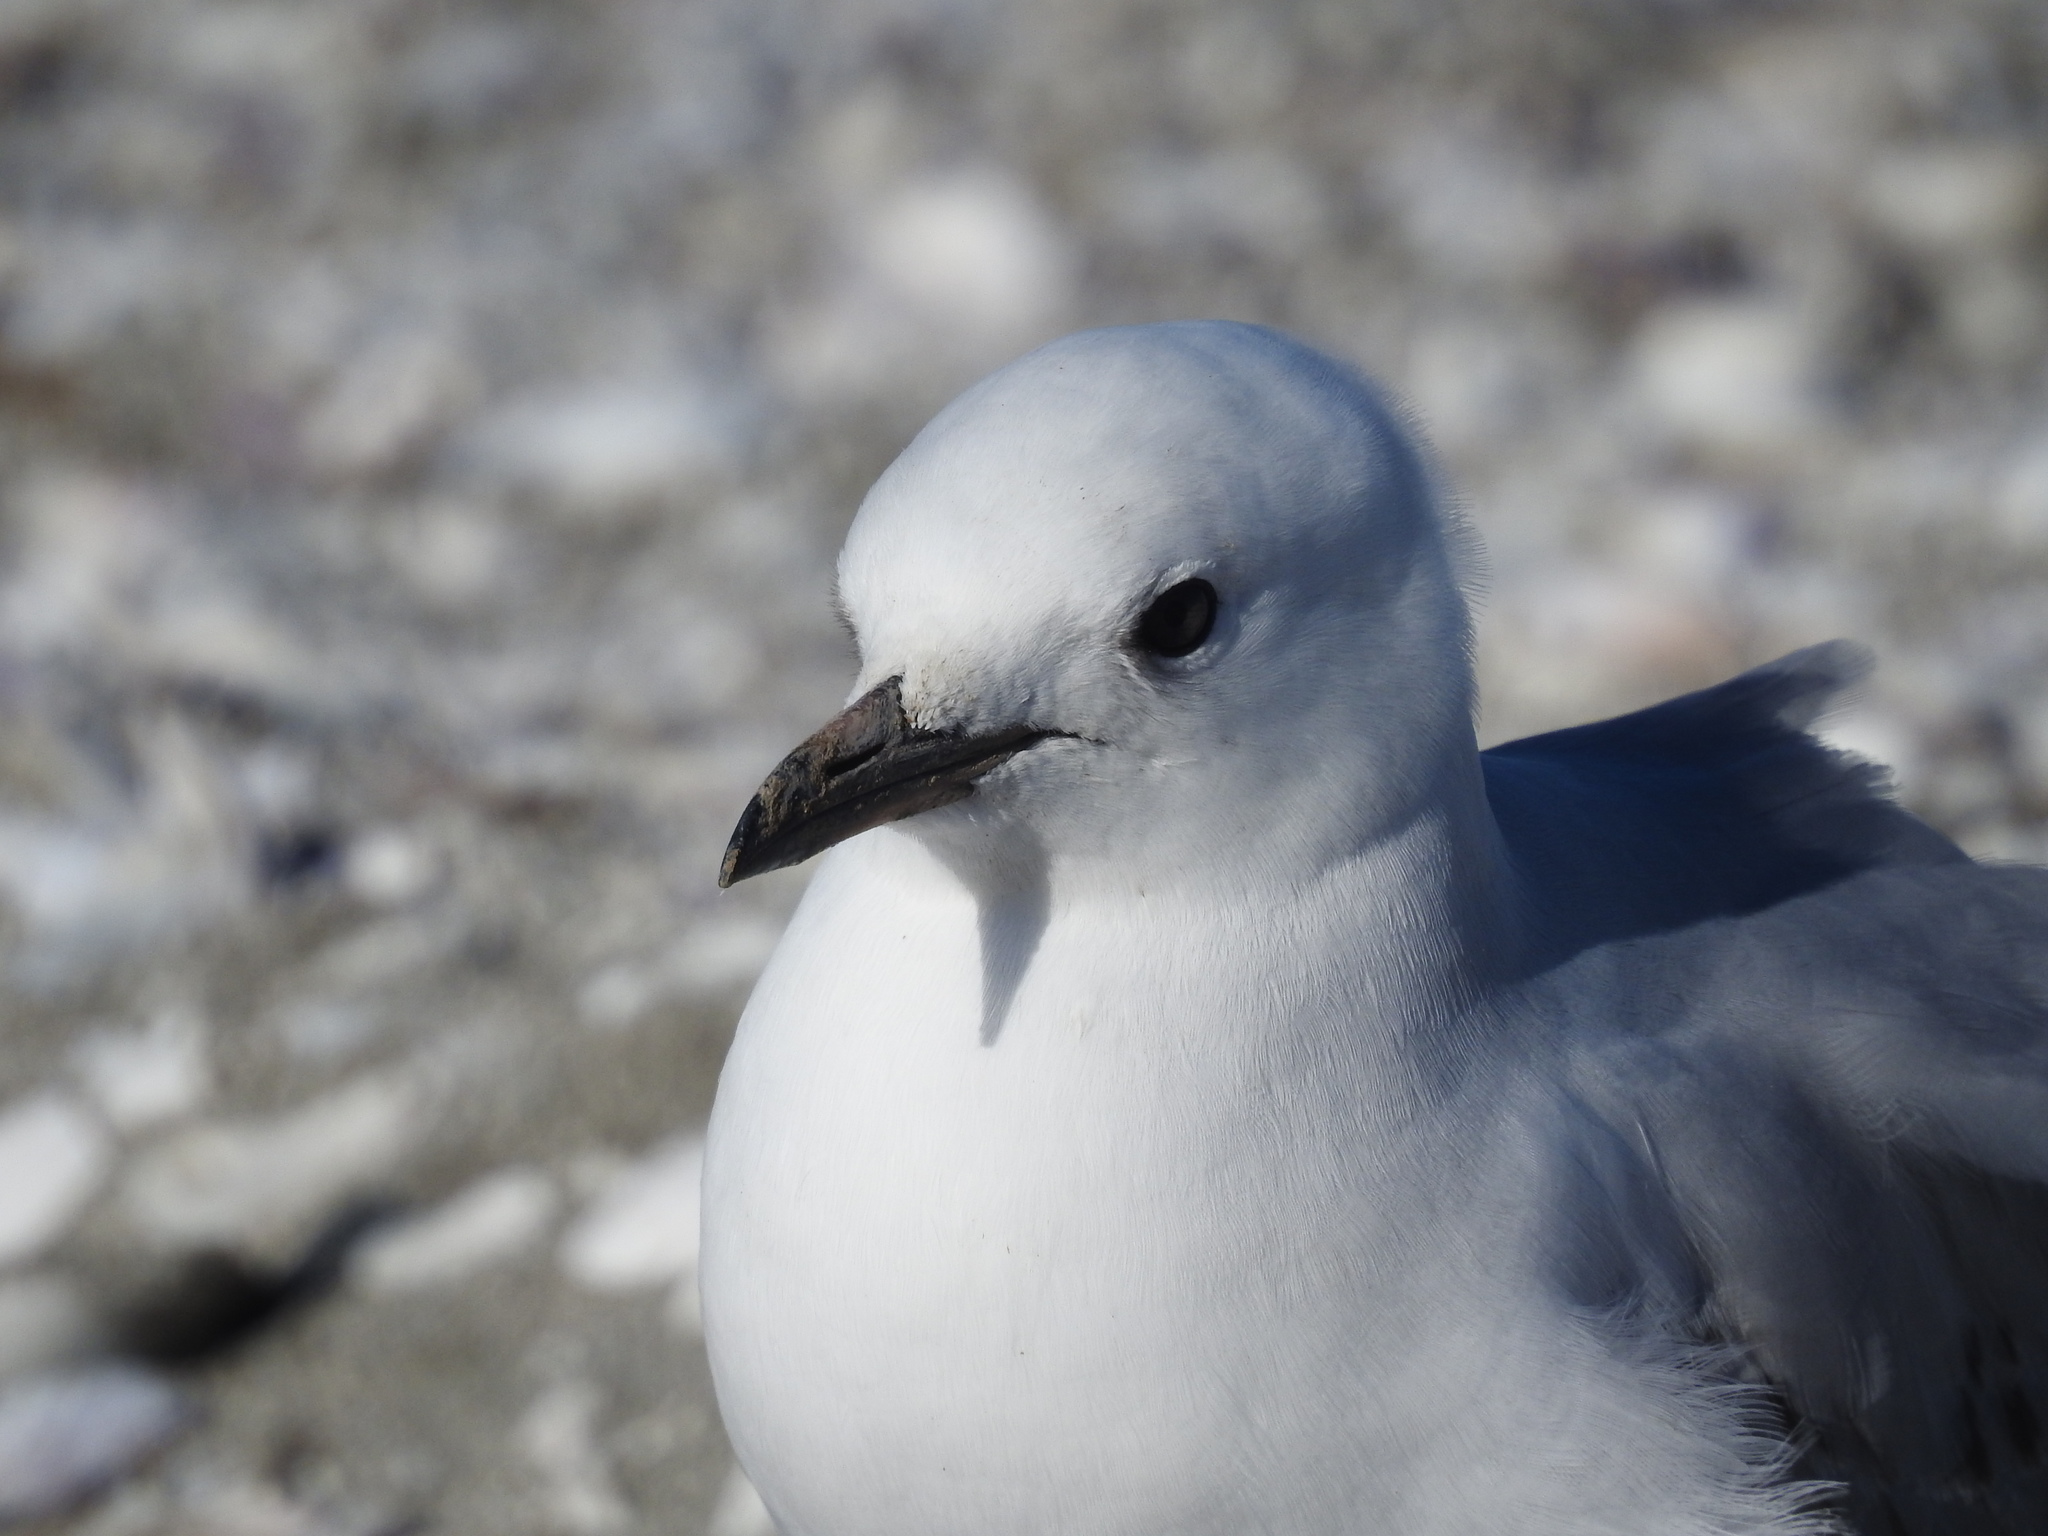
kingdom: Animalia
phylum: Chordata
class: Aves
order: Charadriiformes
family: Laridae
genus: Chroicocephalus
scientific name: Chroicocephalus novaehollandiae
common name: Silver gull
